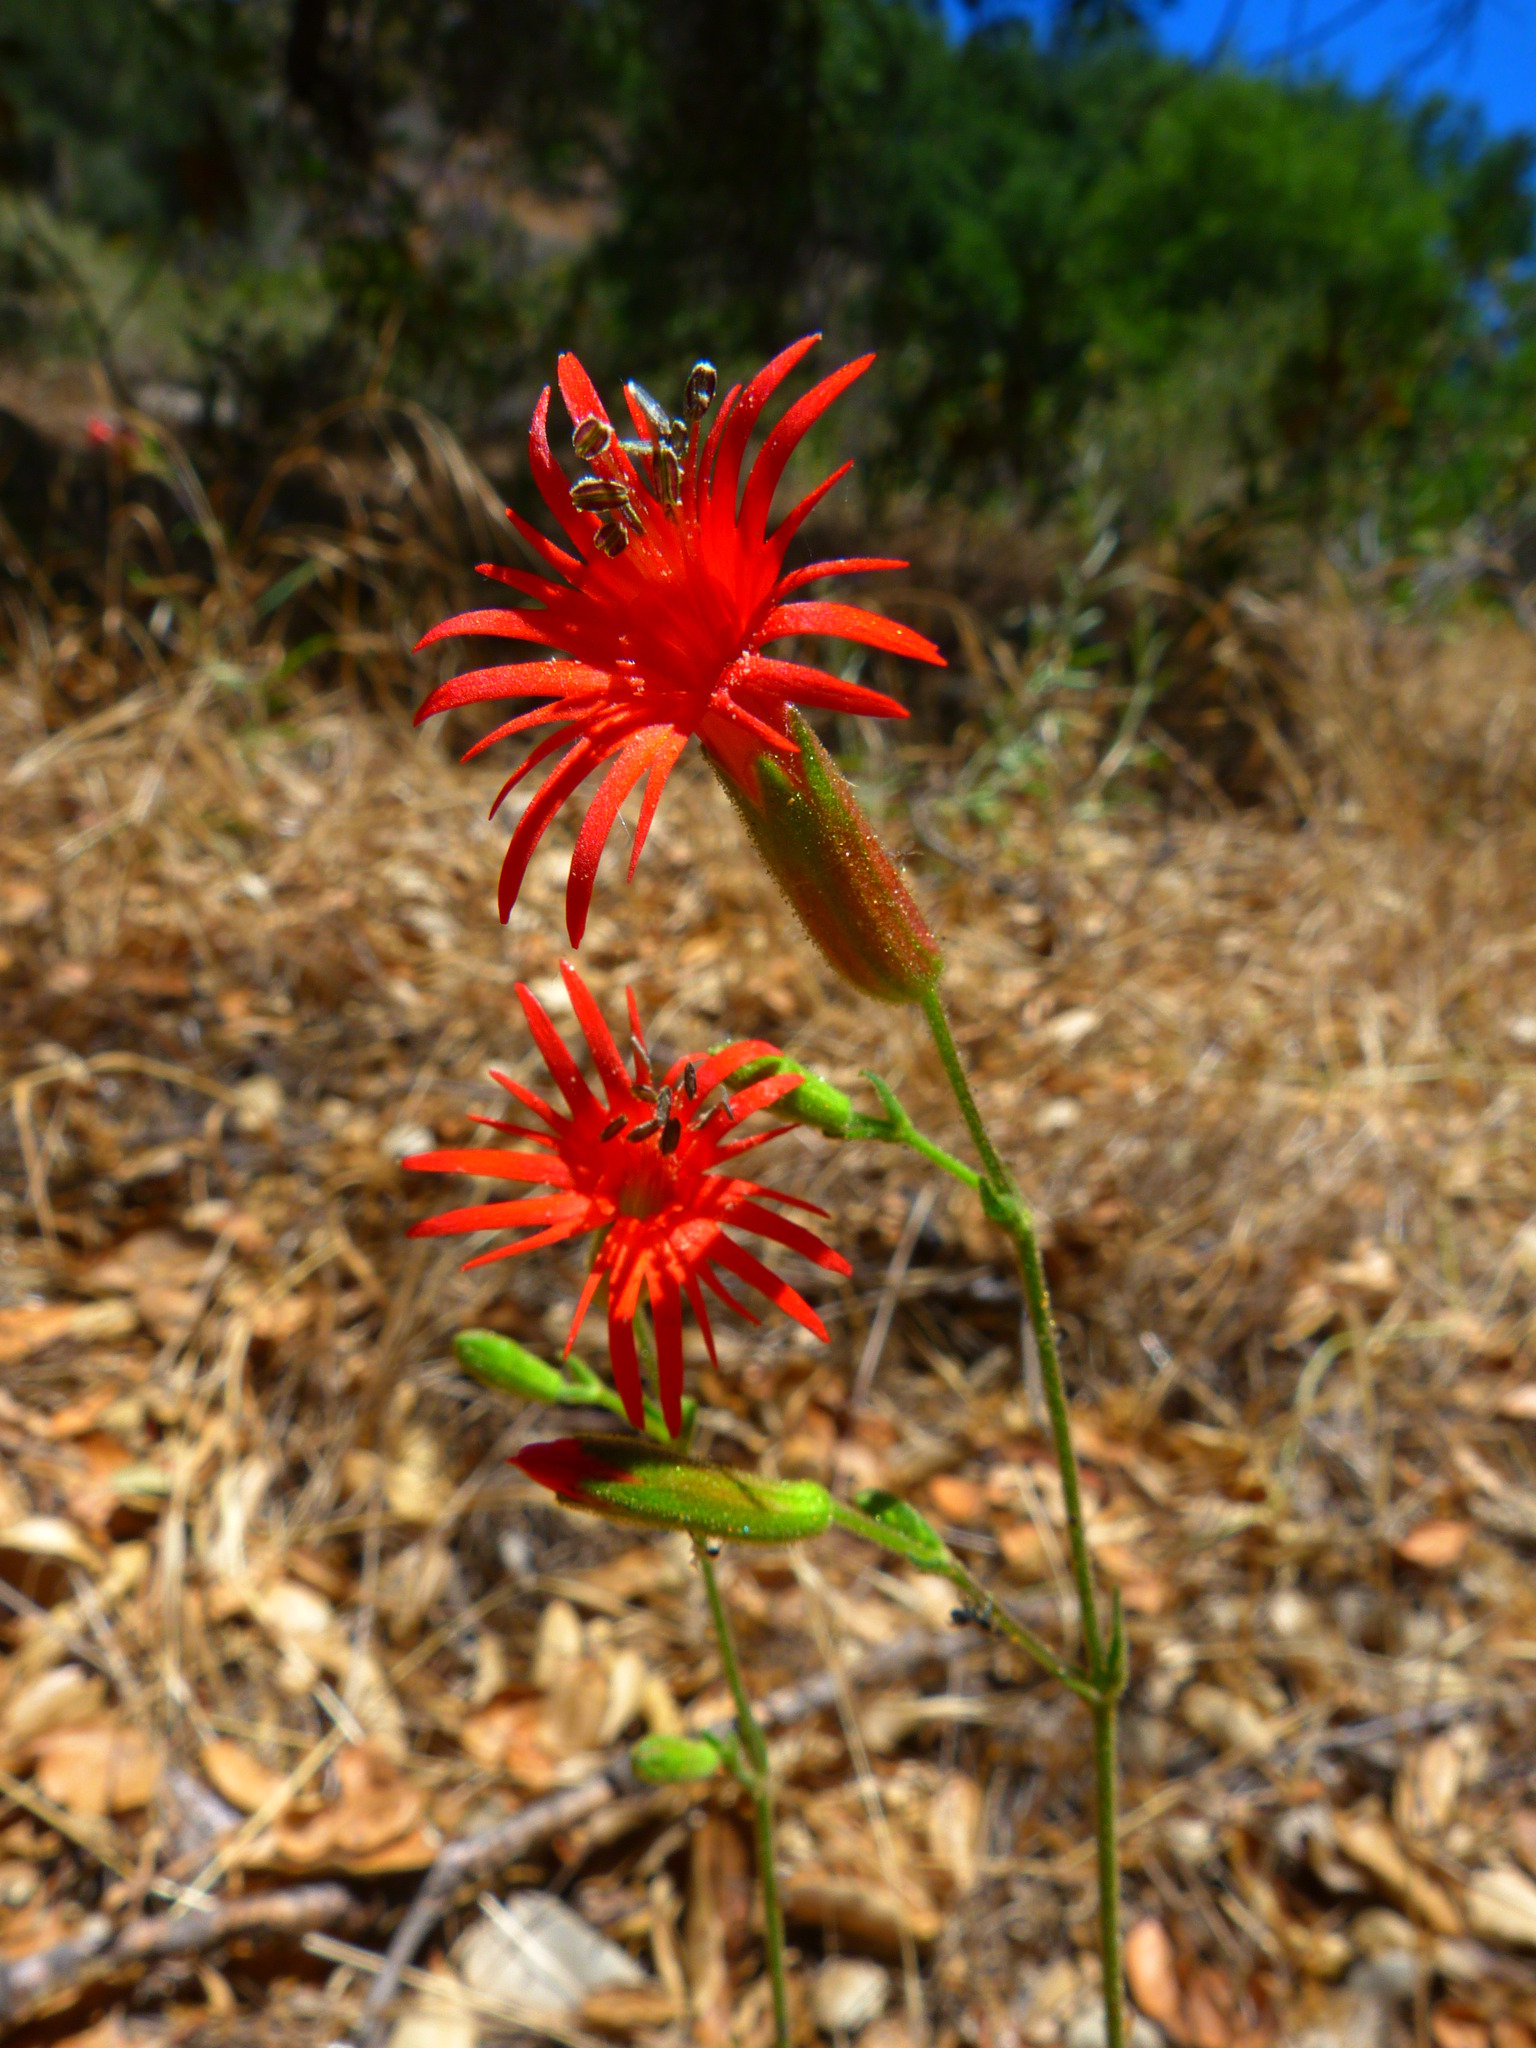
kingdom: Plantae
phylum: Tracheophyta
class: Magnoliopsida
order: Caryophyllales
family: Caryophyllaceae
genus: Silene
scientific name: Silene laciniata
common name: Indian-pink
